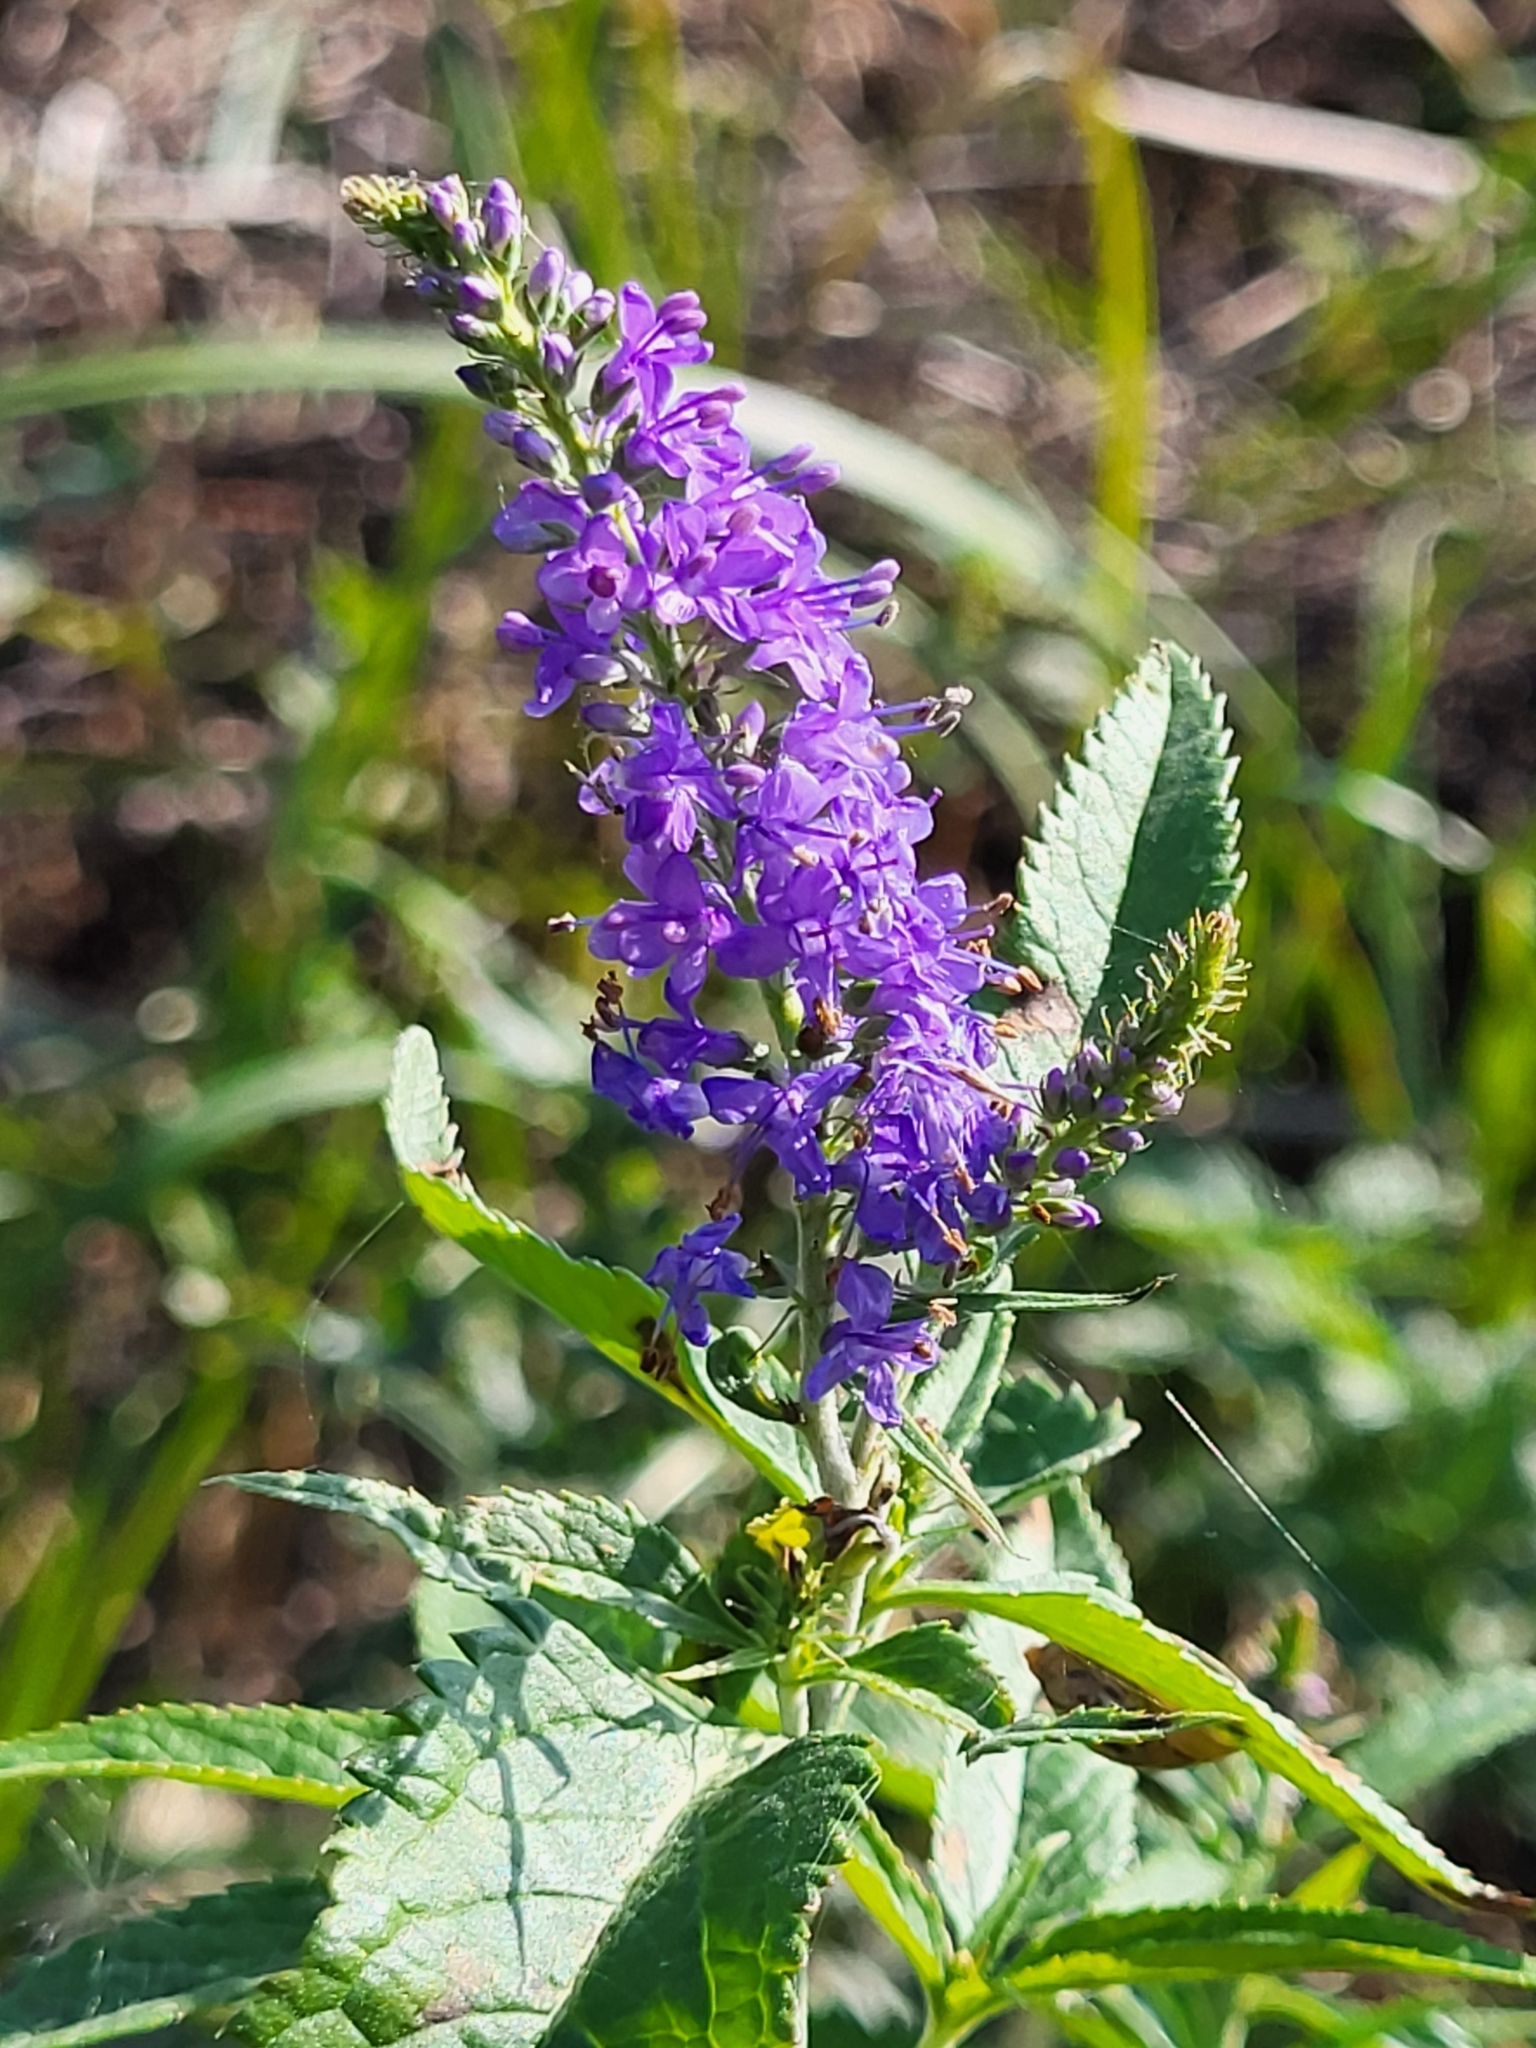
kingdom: Plantae
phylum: Tracheophyta
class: Magnoliopsida
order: Lamiales
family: Plantaginaceae
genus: Veronica
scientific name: Veronica longifolia
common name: Garden speedwell
